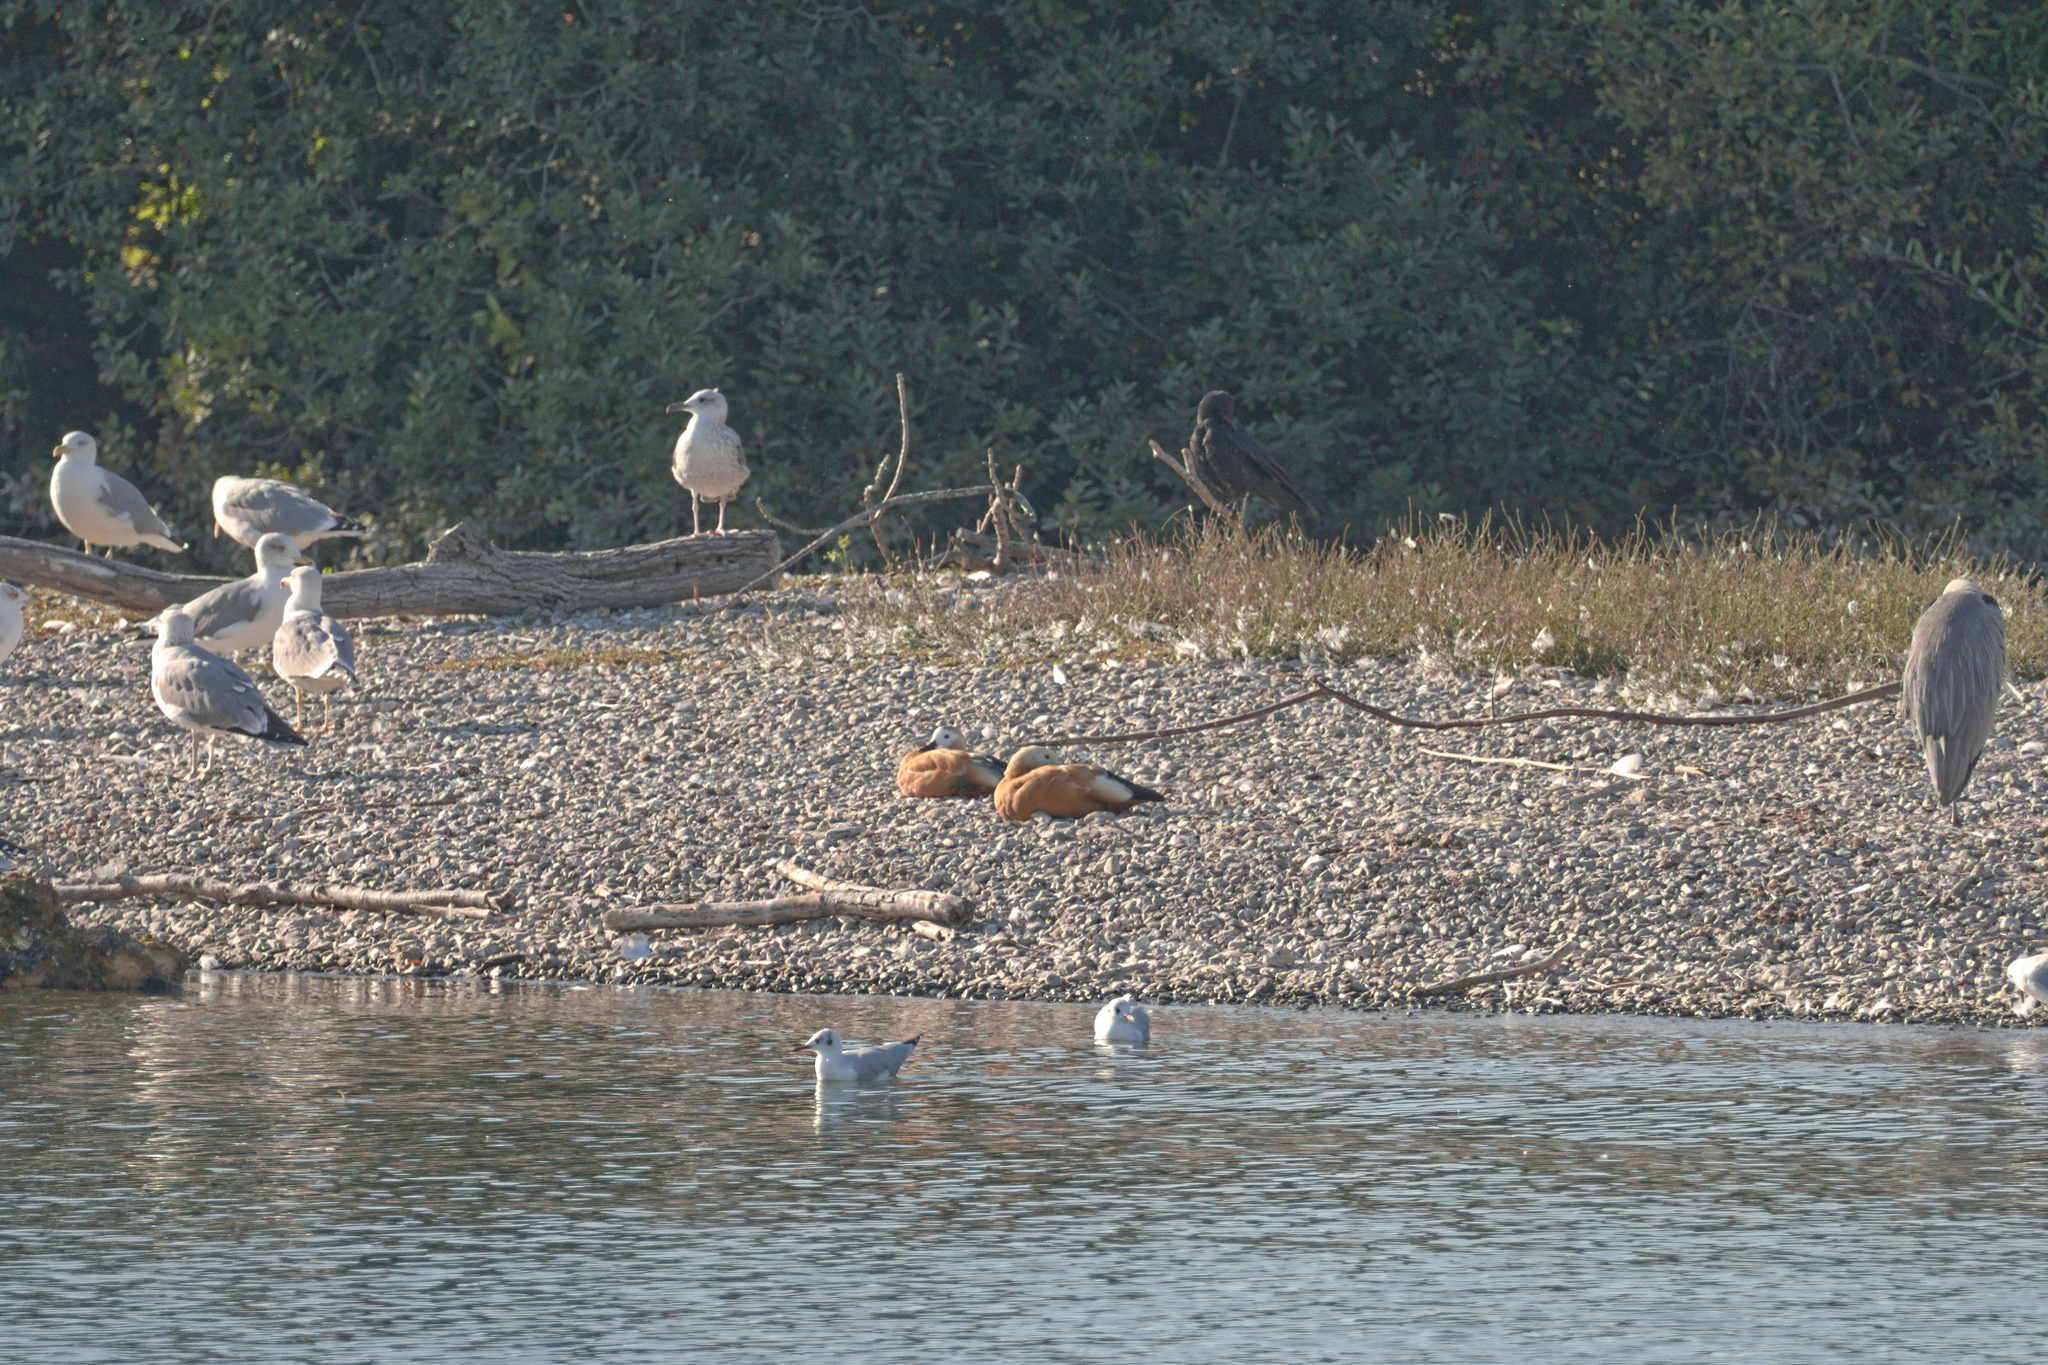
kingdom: Animalia
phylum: Chordata
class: Aves
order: Anseriformes
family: Anatidae
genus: Tadorna
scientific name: Tadorna ferruginea
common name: Ruddy shelduck
